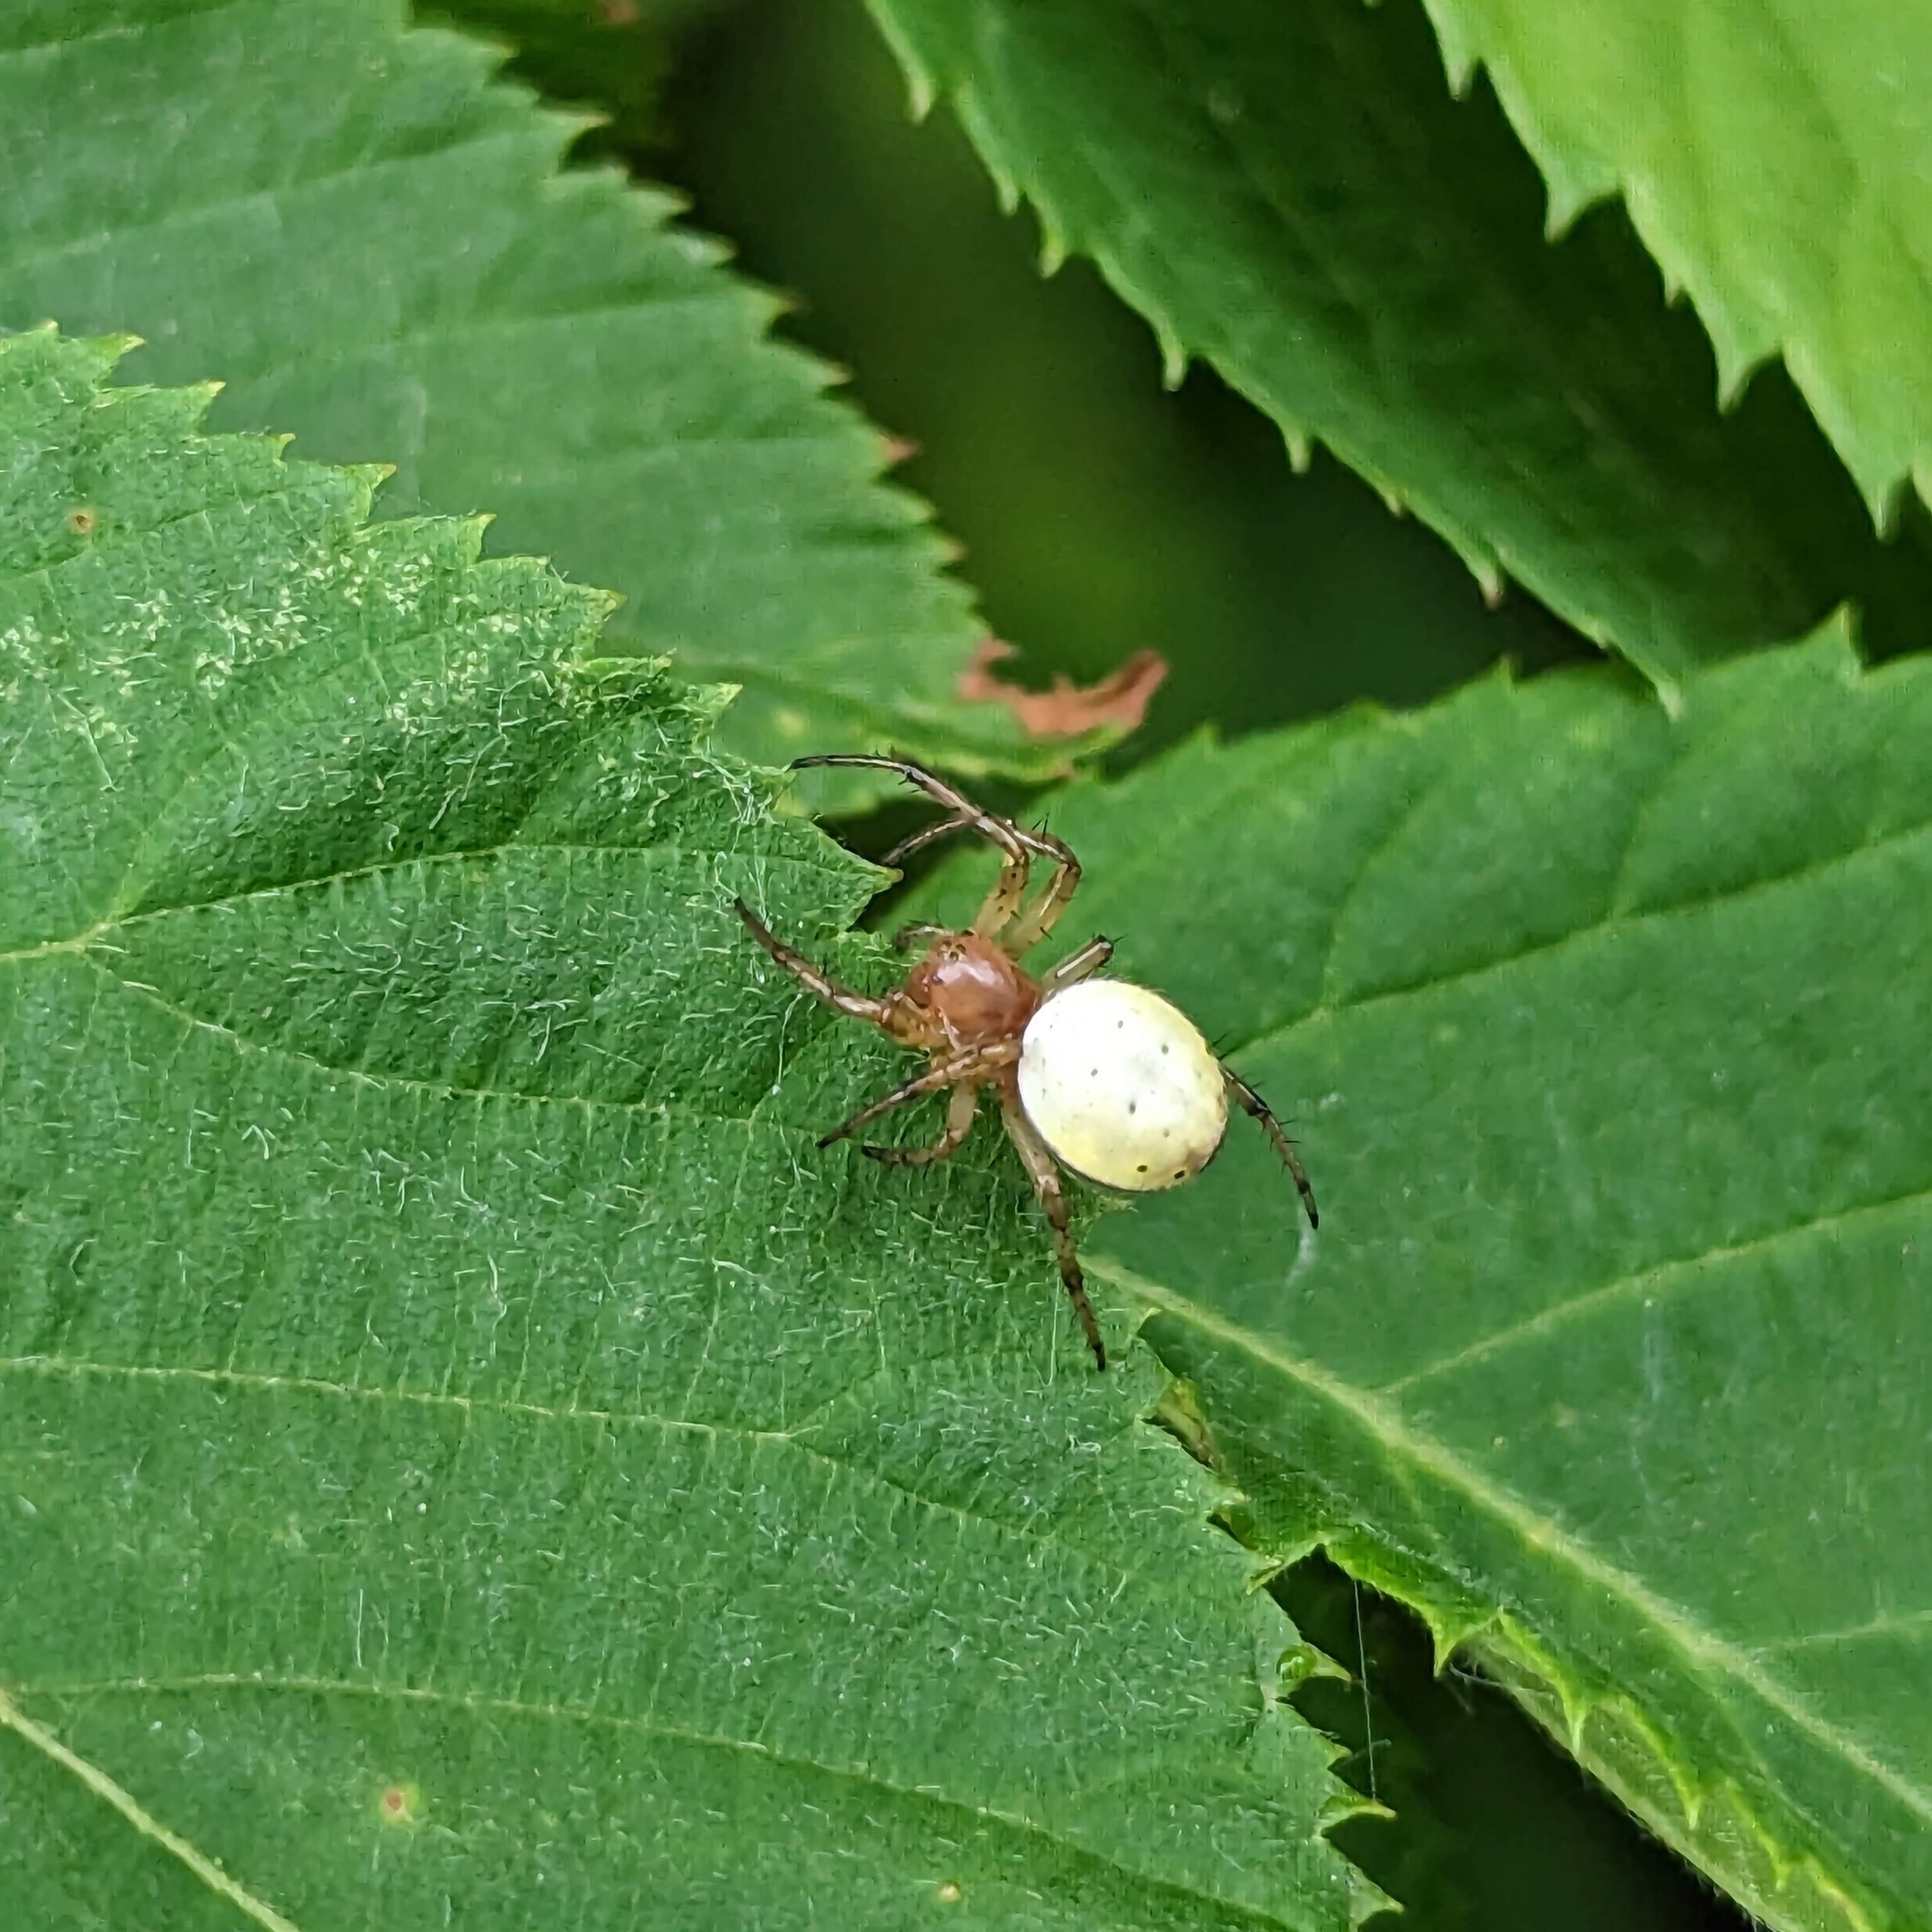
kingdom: Animalia
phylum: Arthropoda
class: Arachnida
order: Araneae
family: Araneidae
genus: Araniella
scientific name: Araniella displicata
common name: Sixspotted orb weaver
